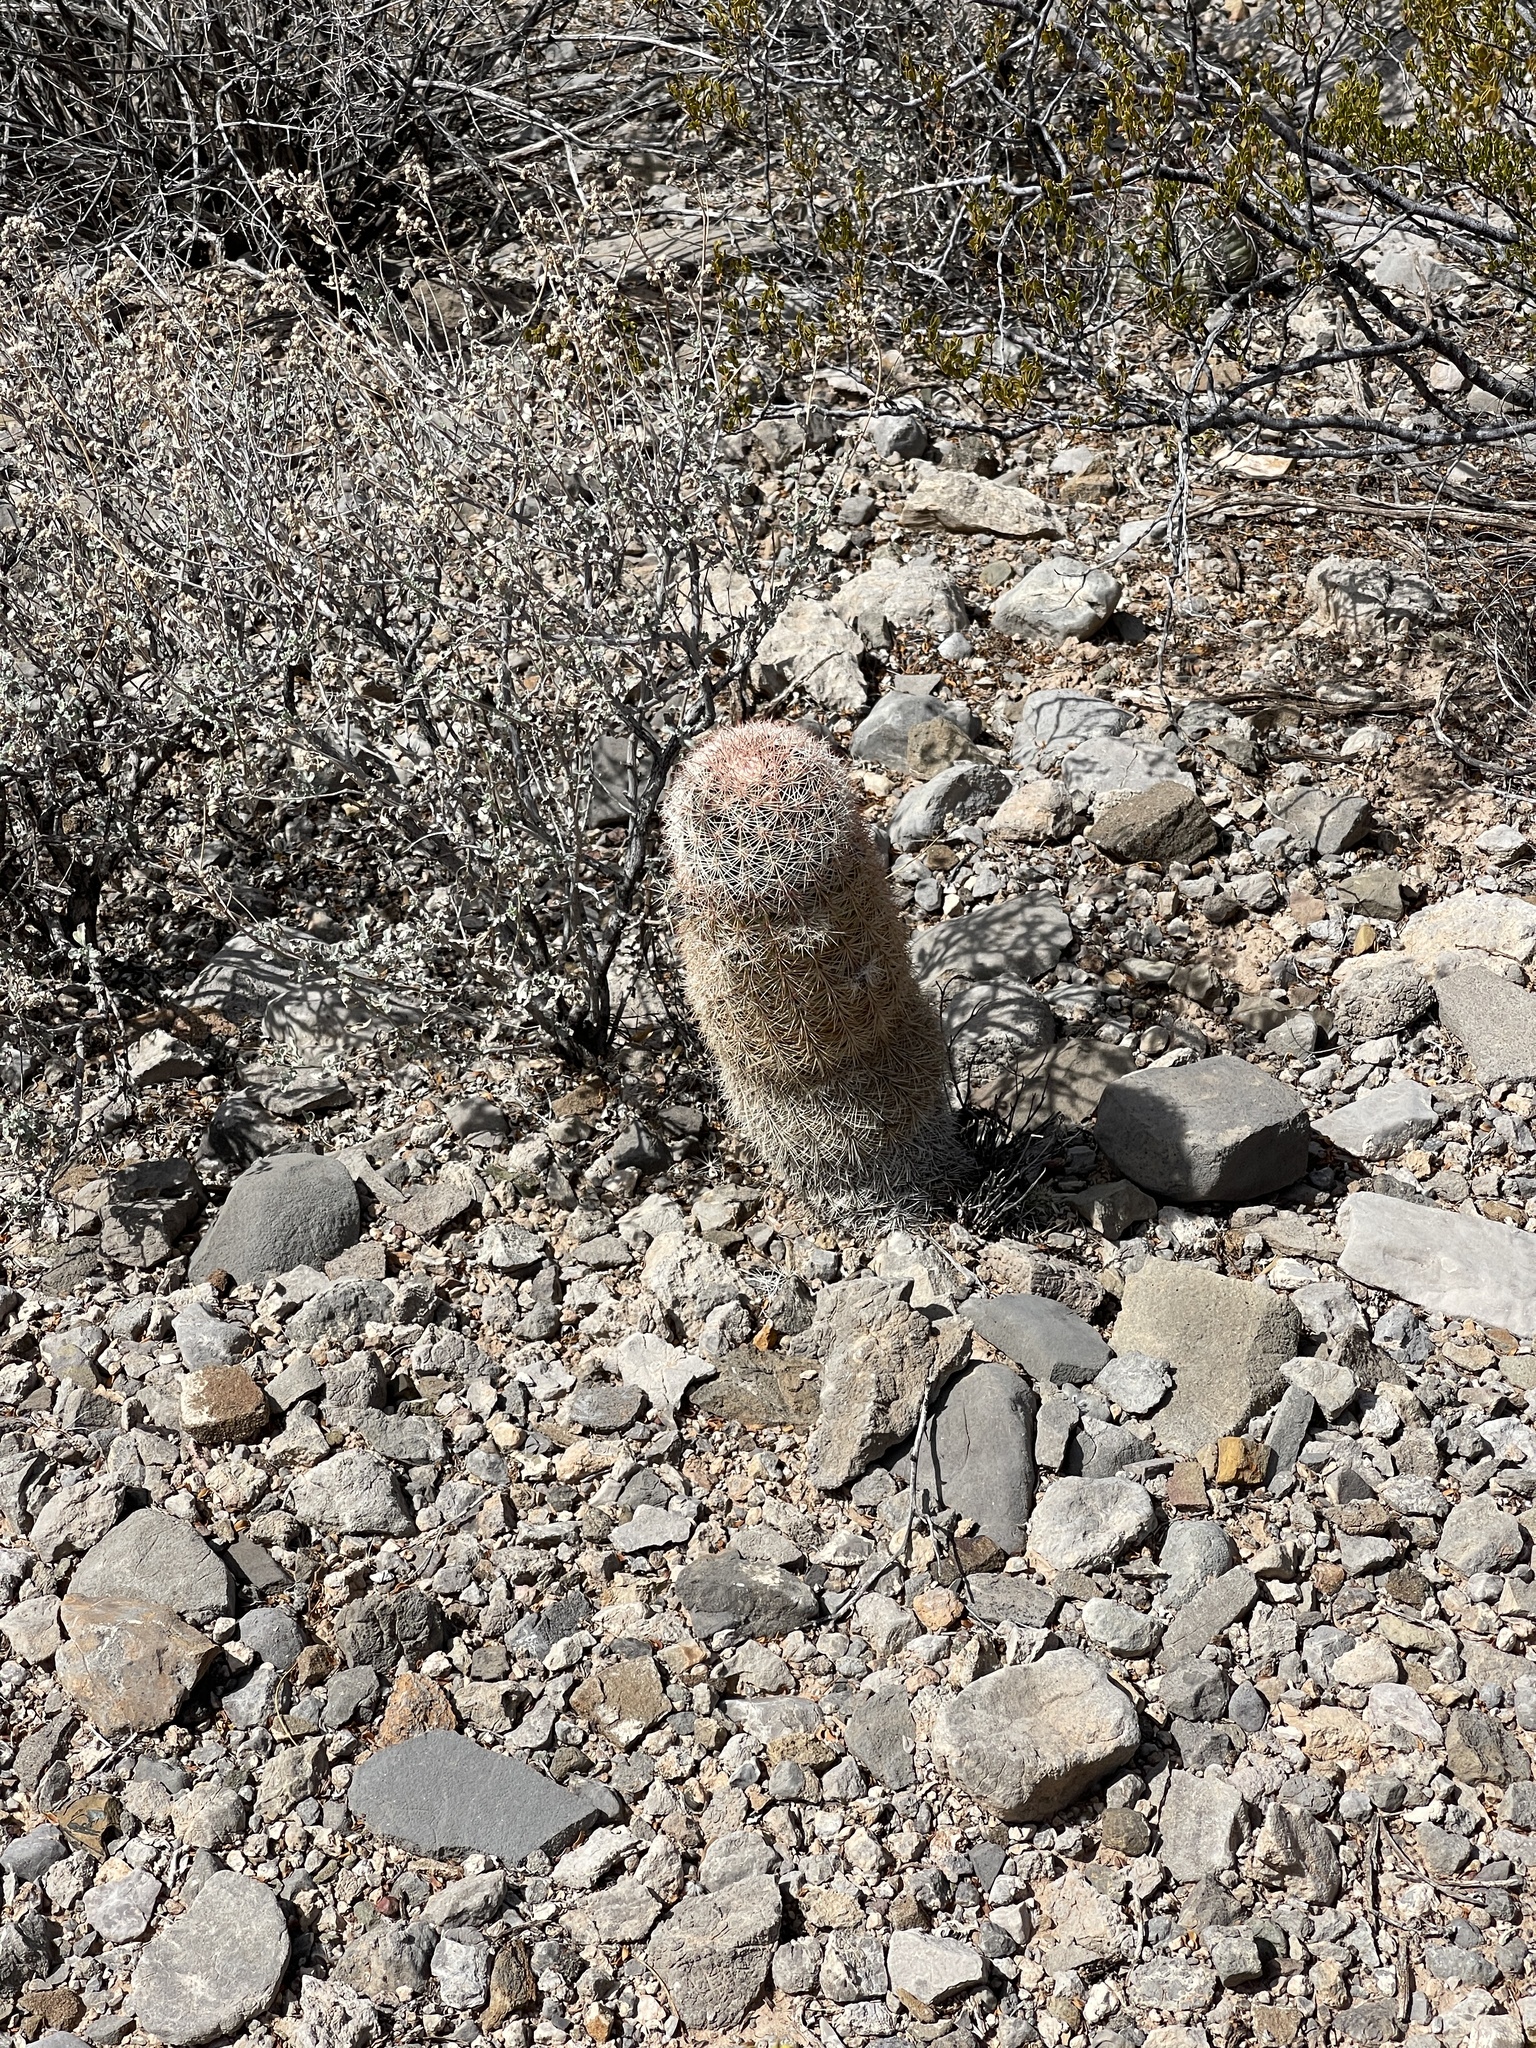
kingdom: Plantae
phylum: Tracheophyta
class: Magnoliopsida
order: Caryophyllales
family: Cactaceae
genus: Echinocereus
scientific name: Echinocereus dasyacanthus
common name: Spiny hedgehog cactus
